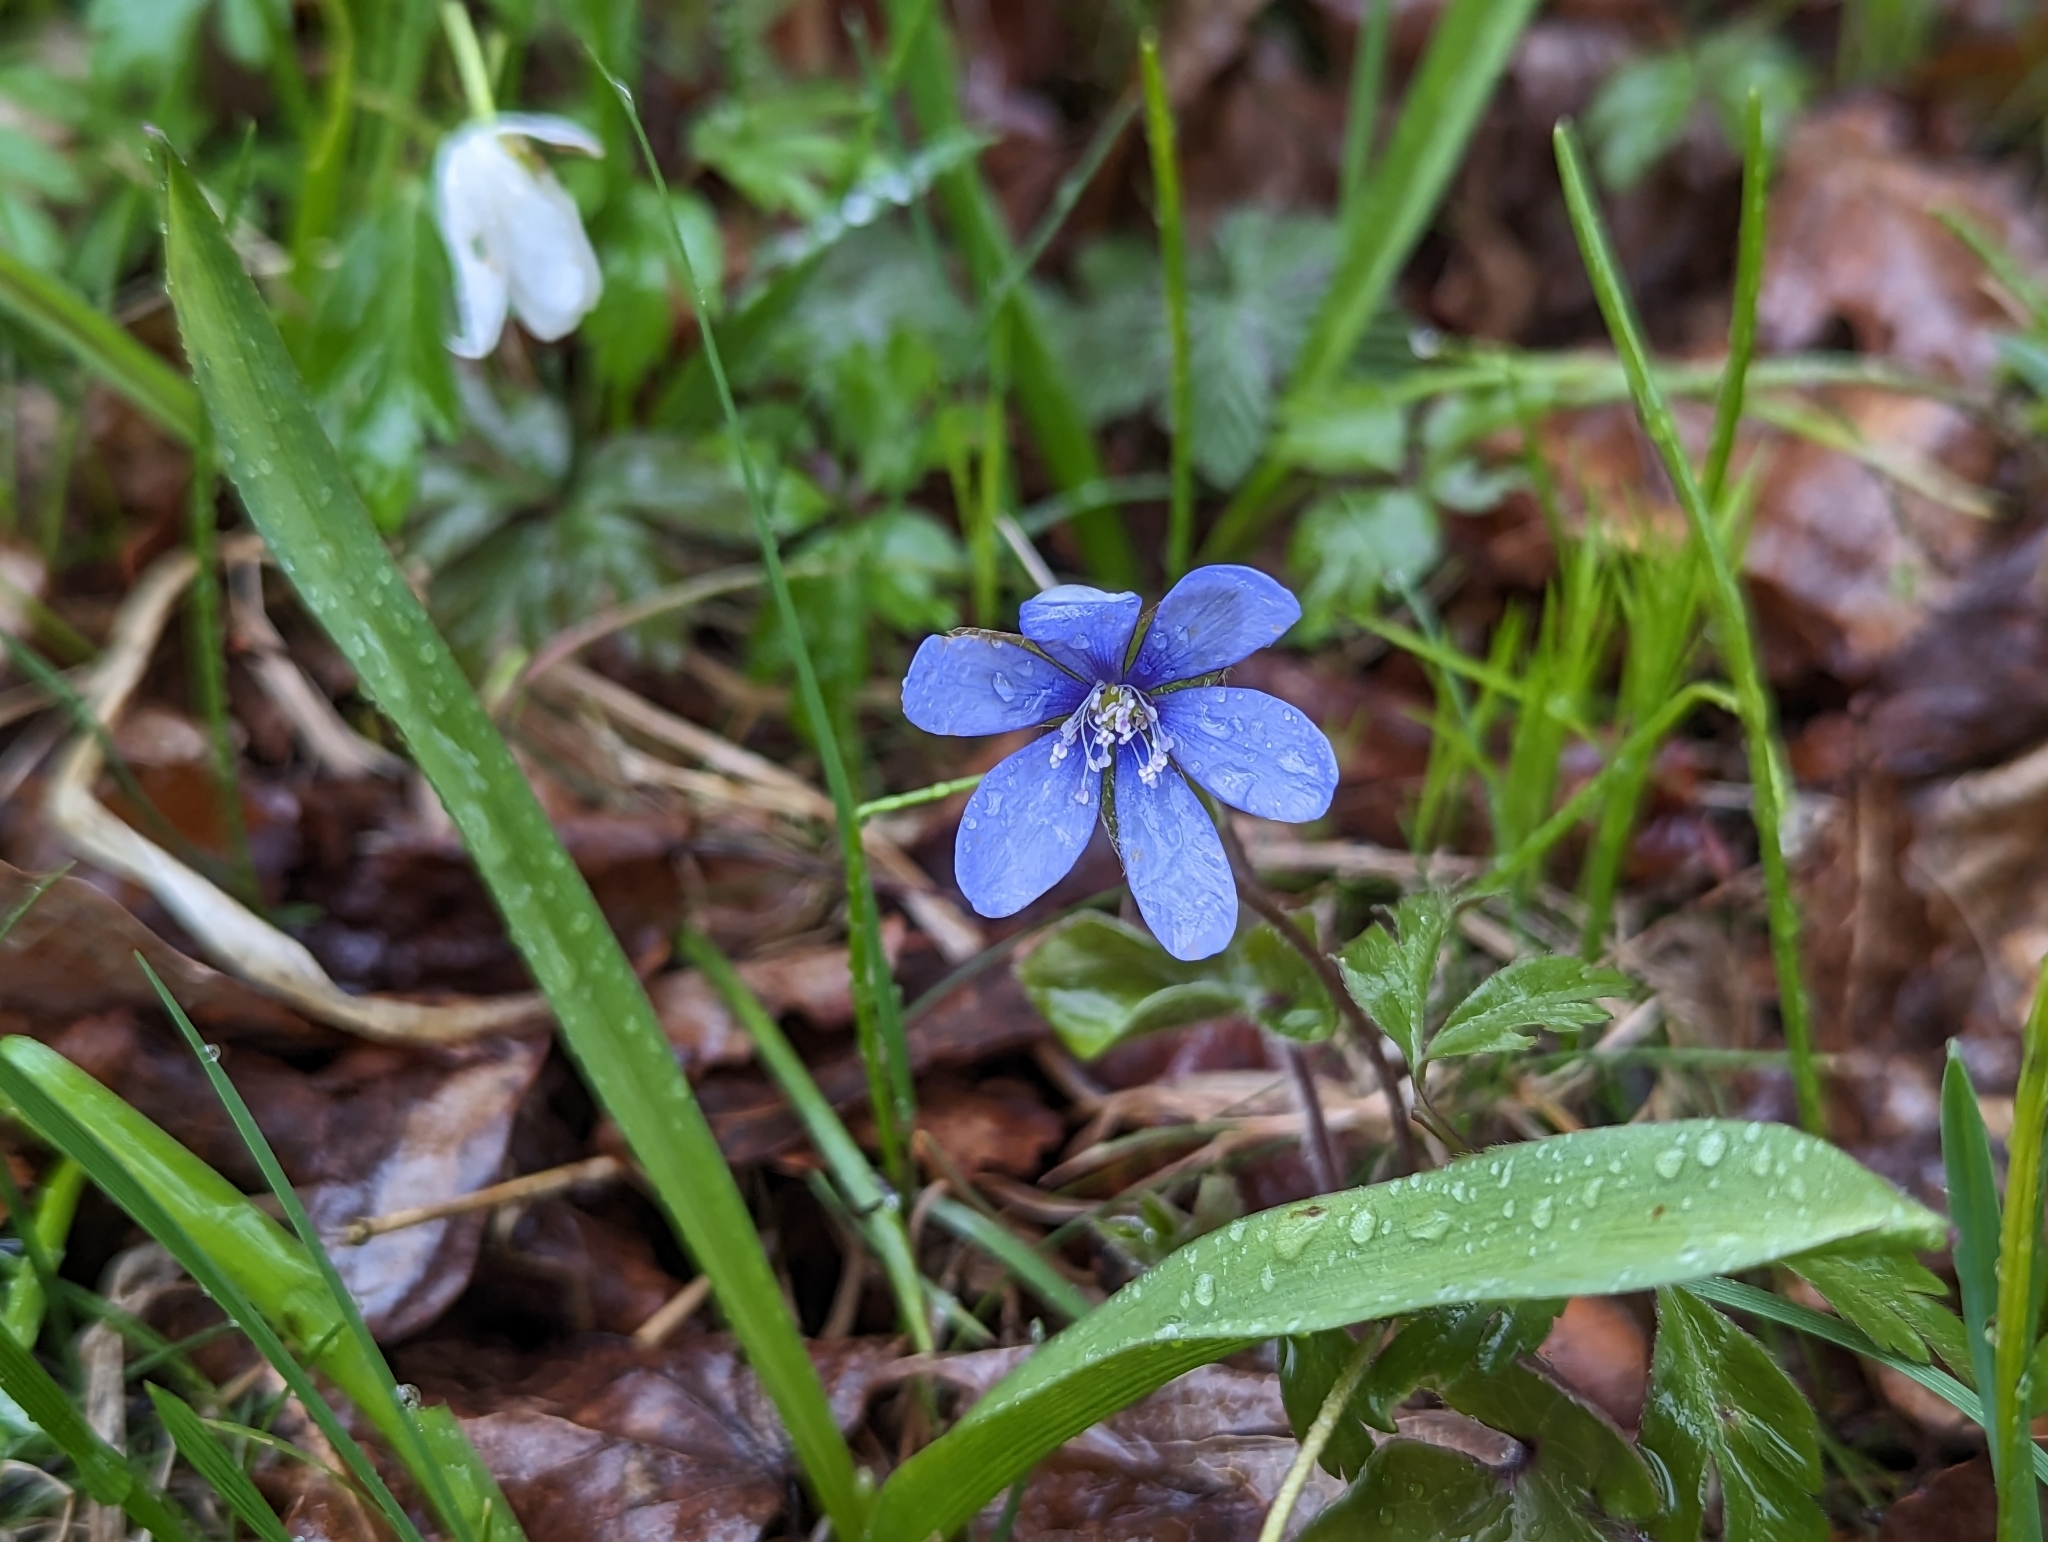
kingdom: Plantae
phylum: Tracheophyta
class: Magnoliopsida
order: Ranunculales
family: Ranunculaceae
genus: Hepatica
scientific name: Hepatica nobilis
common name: Liverleaf
